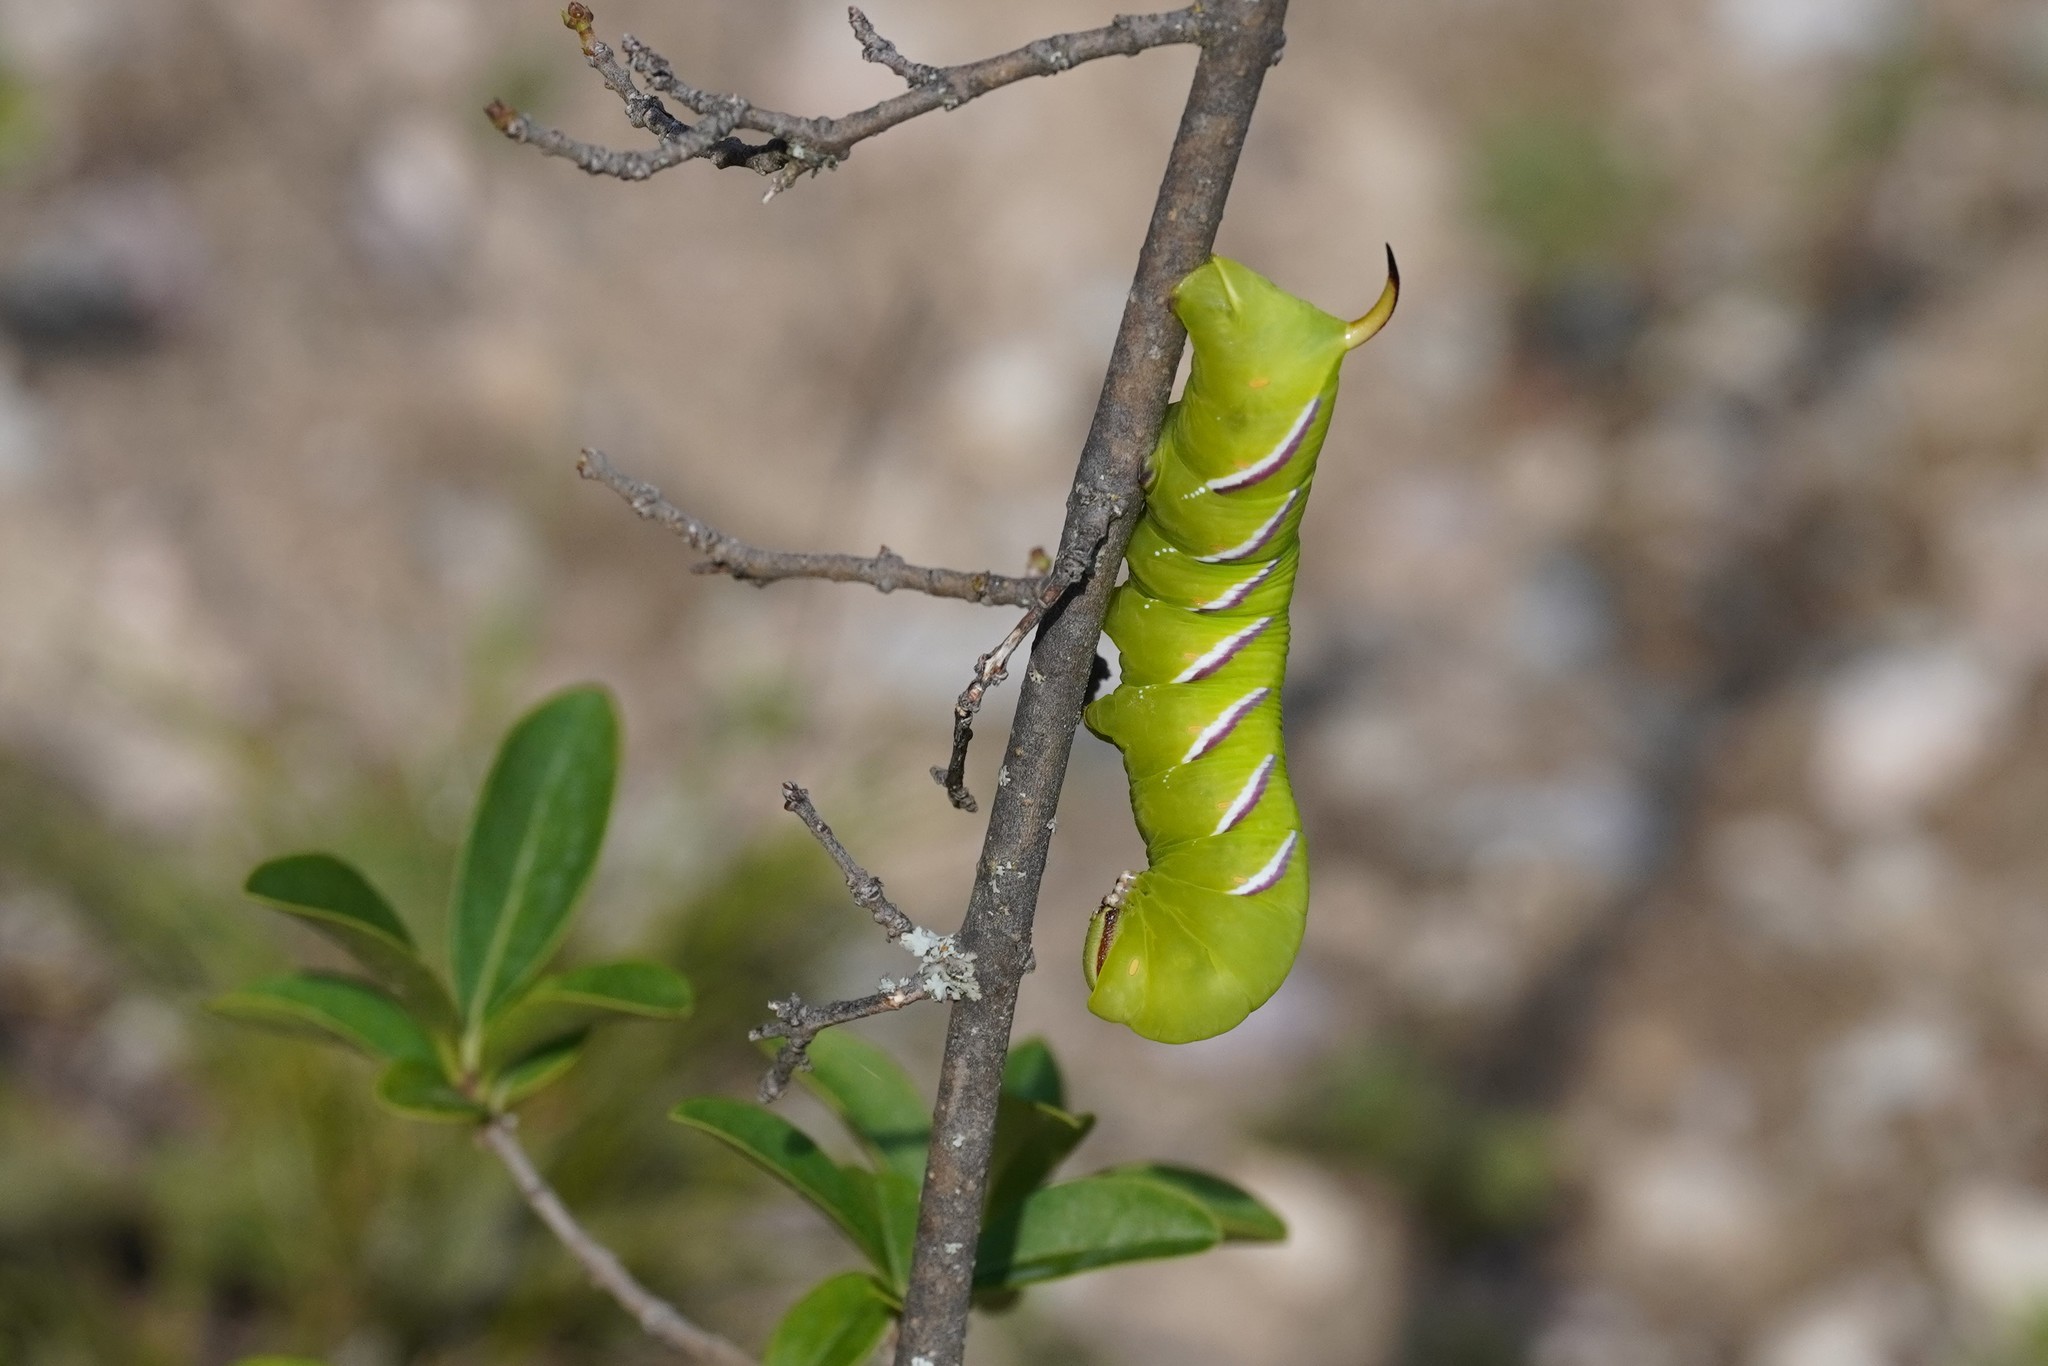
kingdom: Animalia
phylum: Arthropoda
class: Insecta
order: Lepidoptera
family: Sphingidae
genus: Sphinx
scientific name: Sphinx ligustri
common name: Privet hawk-moth
